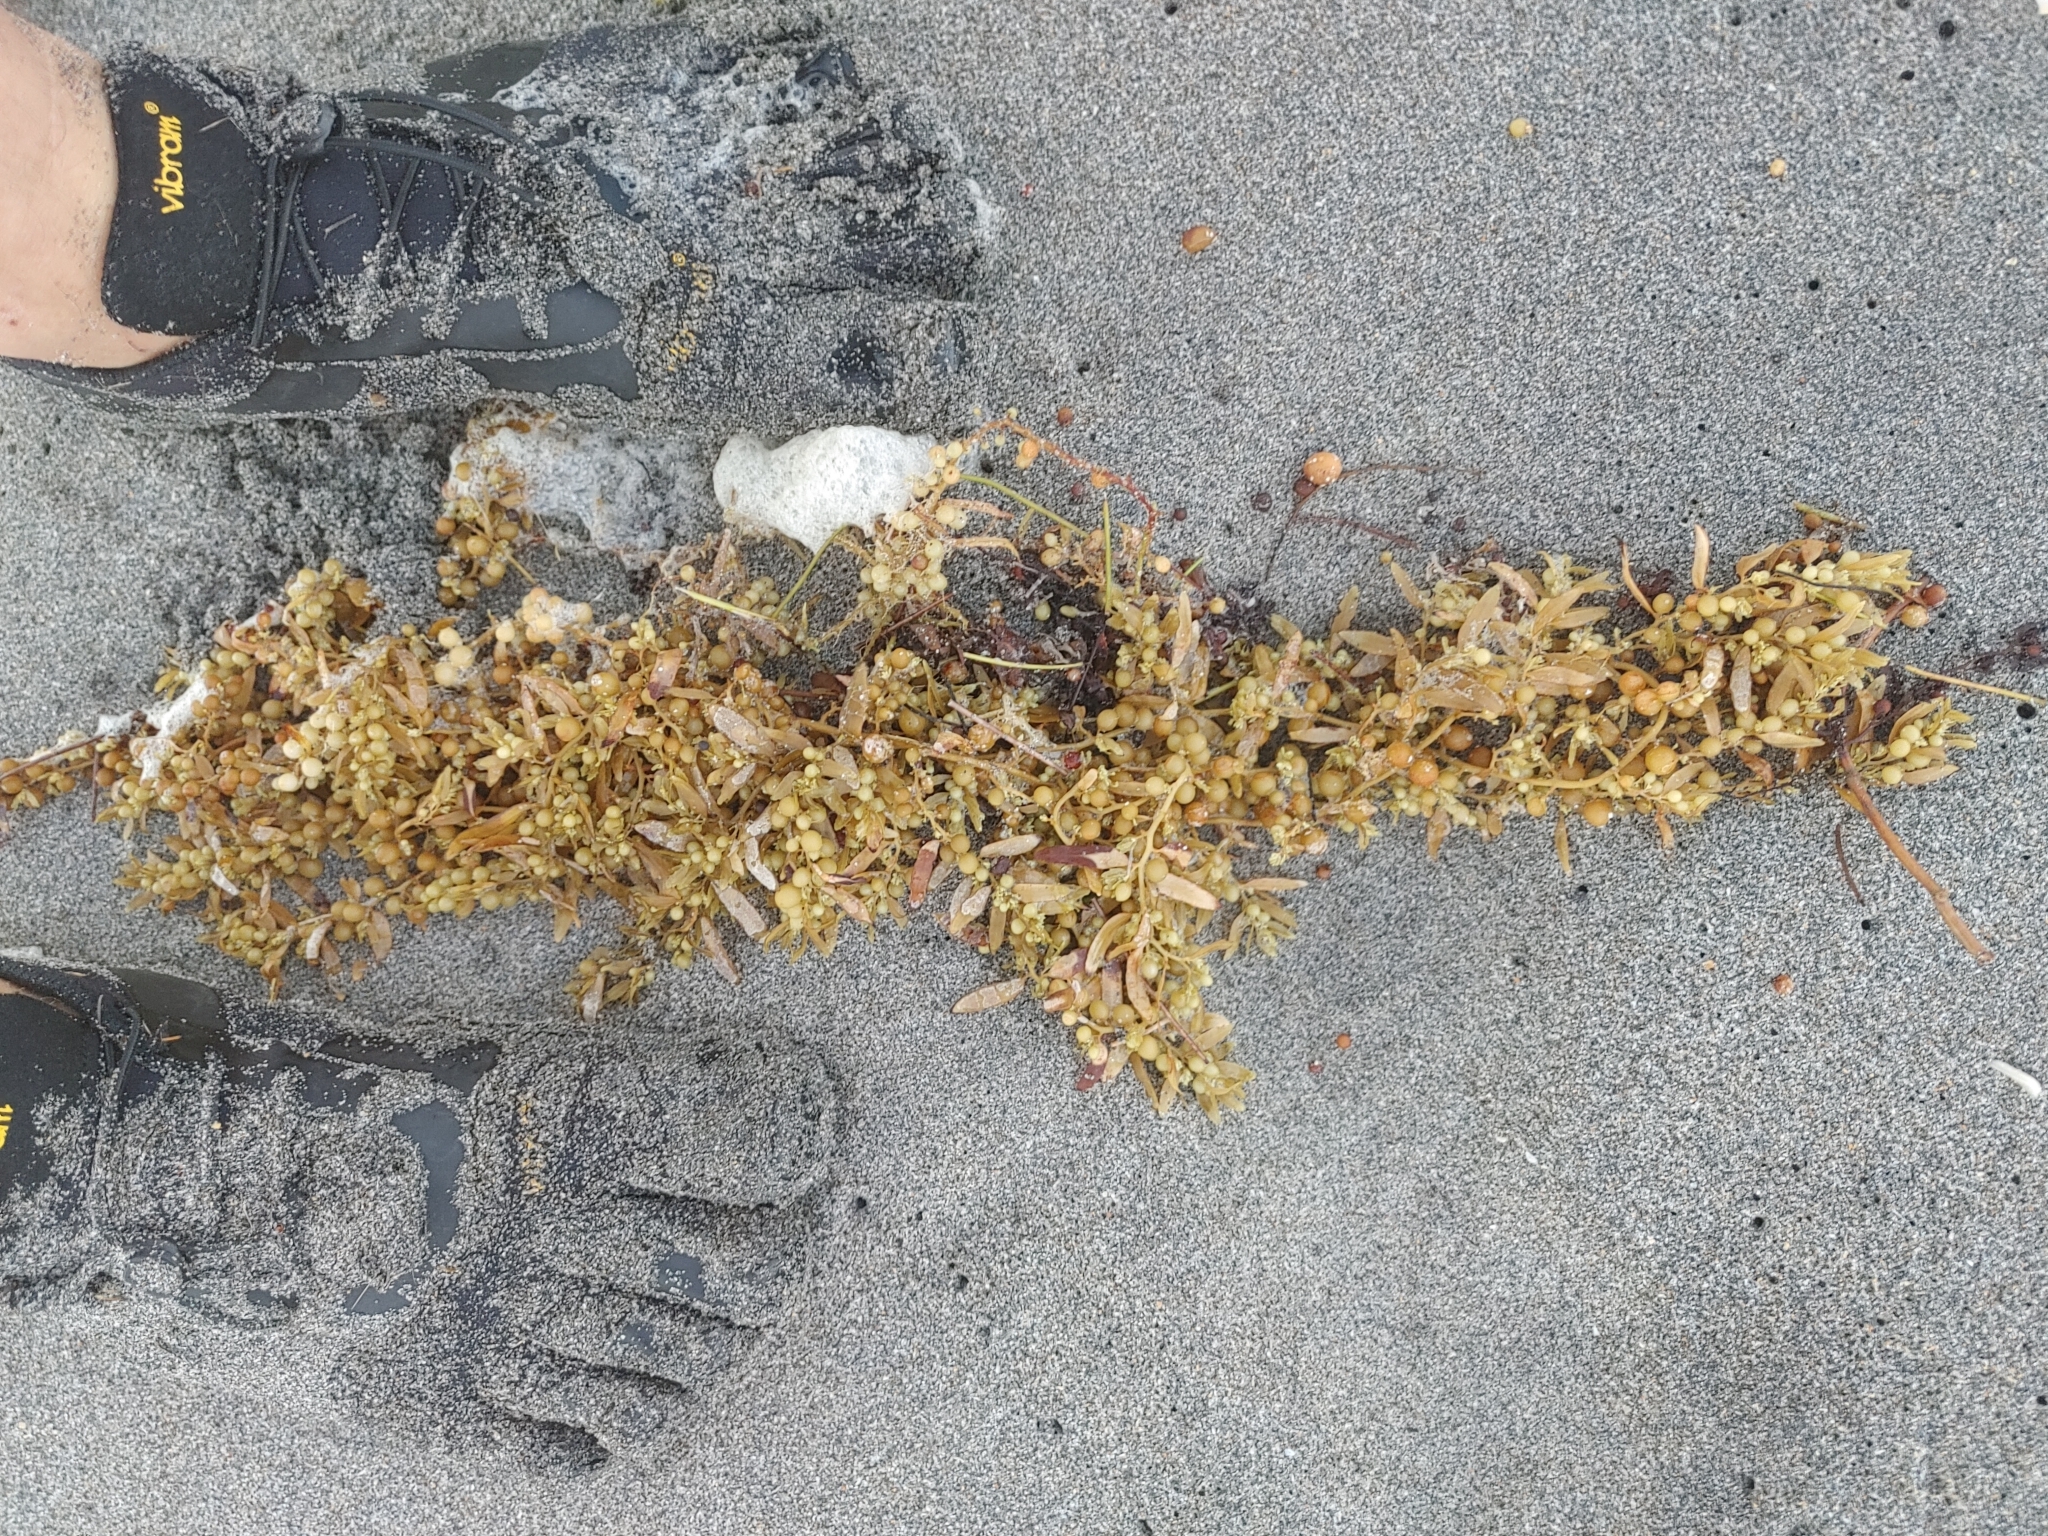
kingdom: Chromista
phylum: Ochrophyta
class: Phaeophyceae
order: Fucales
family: Sargassaceae
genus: Sargassum
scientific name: Sargassum fluitans
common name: Sargassum seaweed
